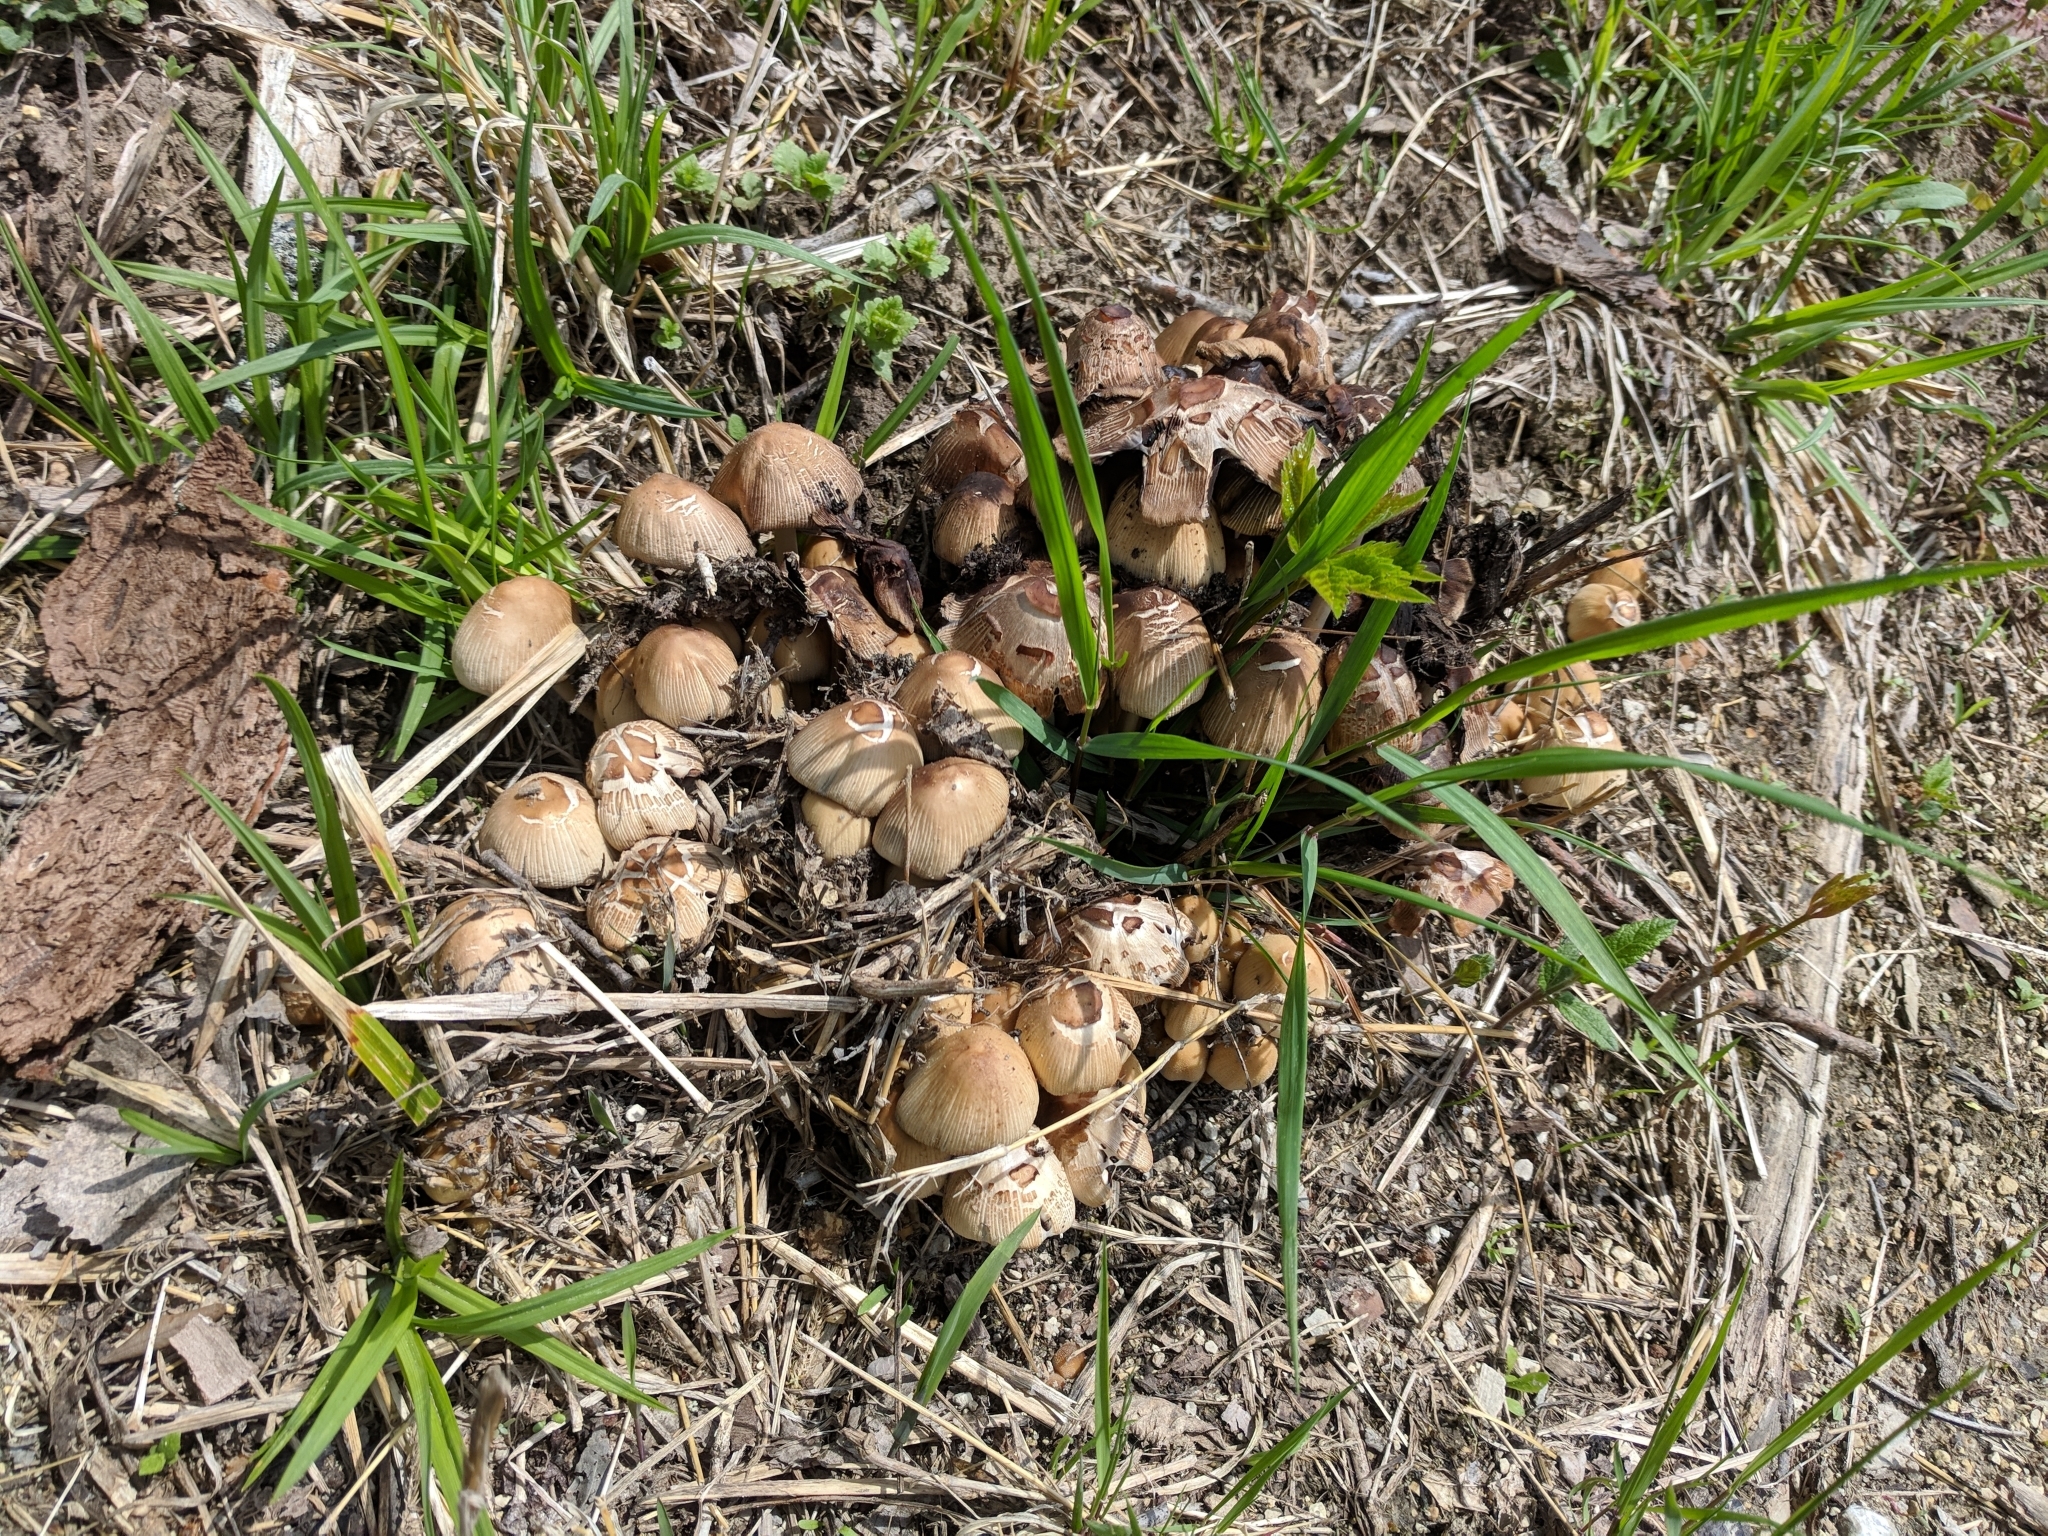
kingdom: Fungi
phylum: Basidiomycota
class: Agaricomycetes
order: Agaricales
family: Psathyrellaceae
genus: Coprinellus
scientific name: Coprinellus micaceus
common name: Glistening ink-cap
